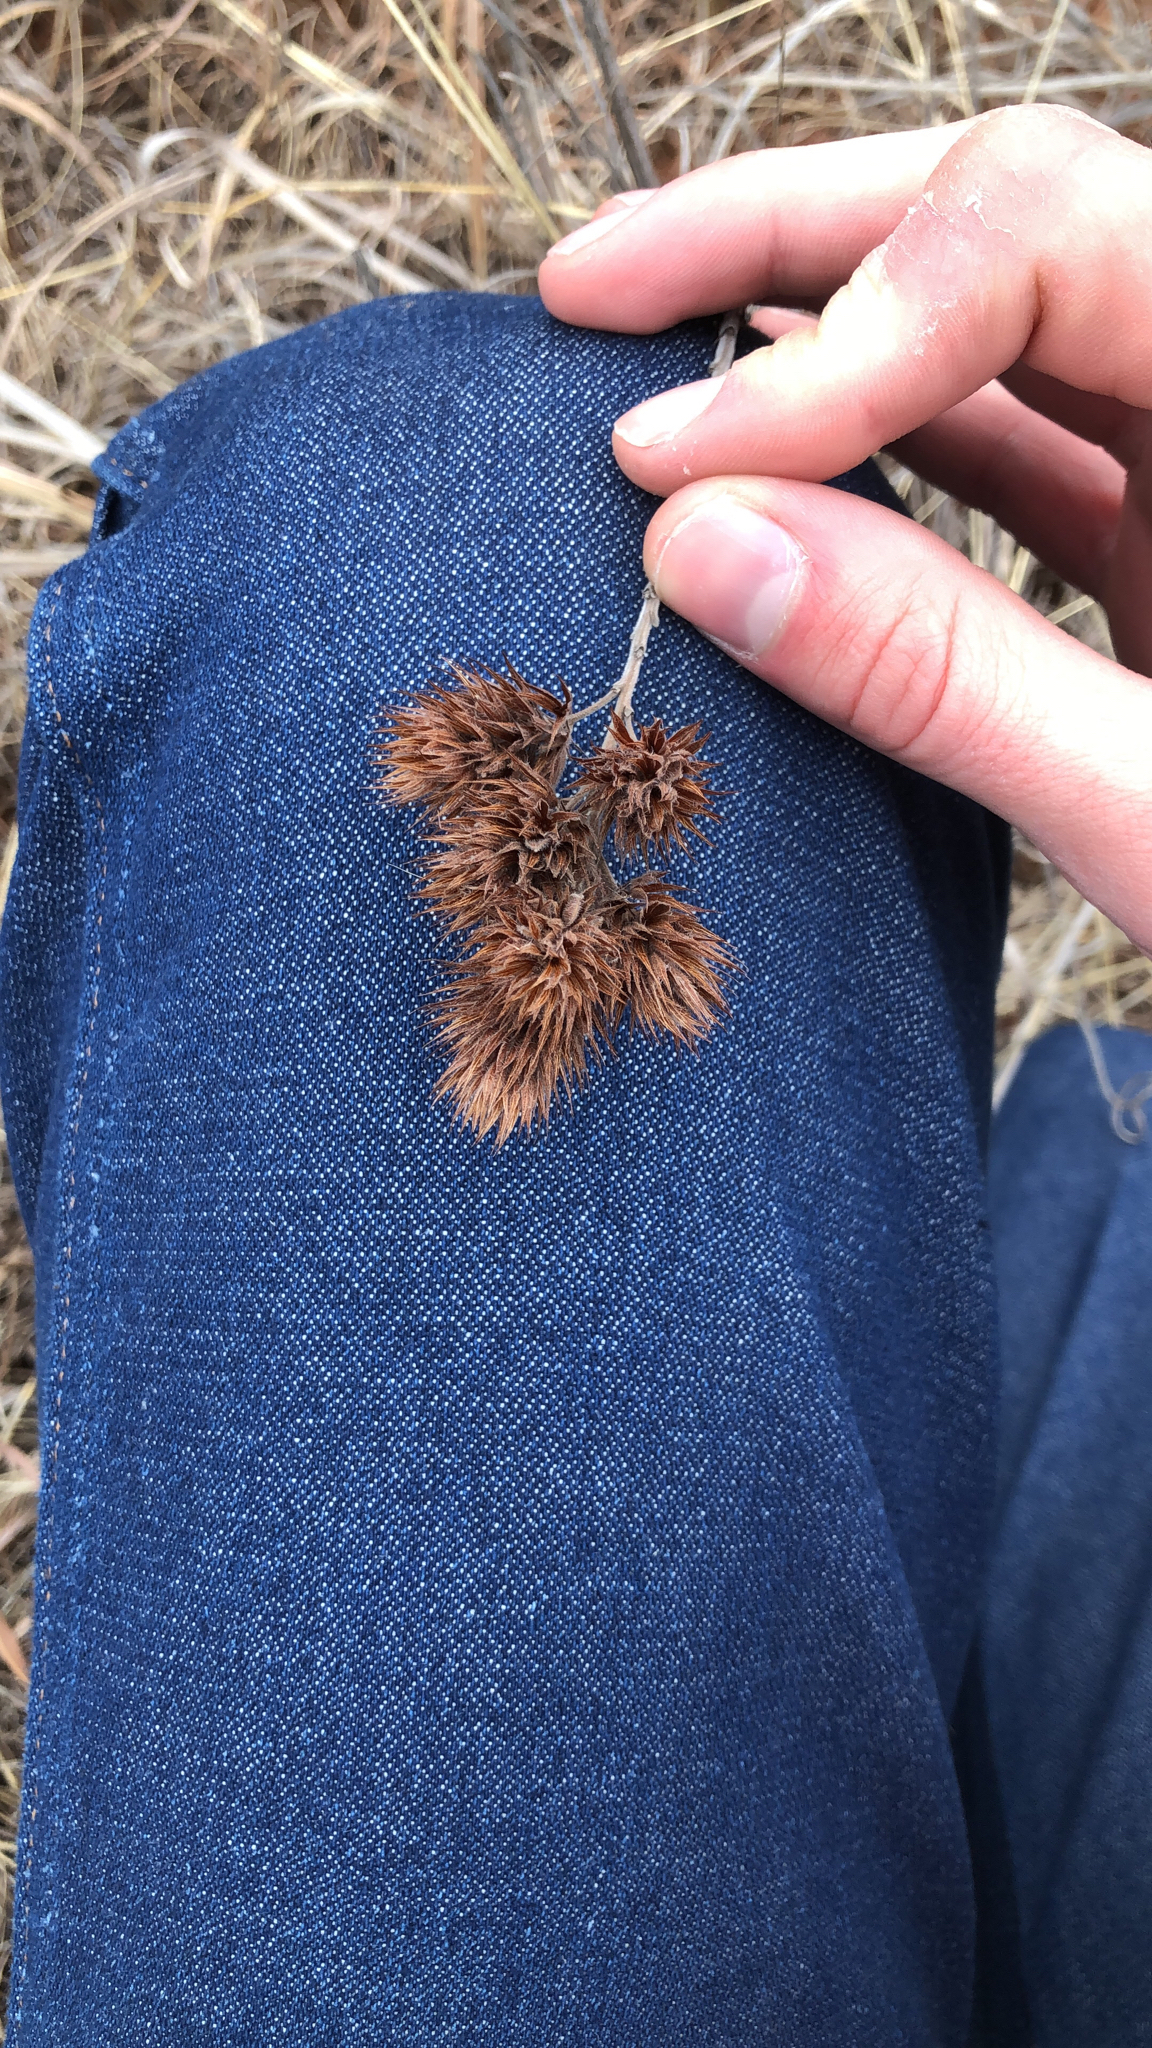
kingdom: Plantae
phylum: Tracheophyta
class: Magnoliopsida
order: Fabales
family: Fabaceae
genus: Lespedeza
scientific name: Lespedeza capitata
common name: Dusty clover
